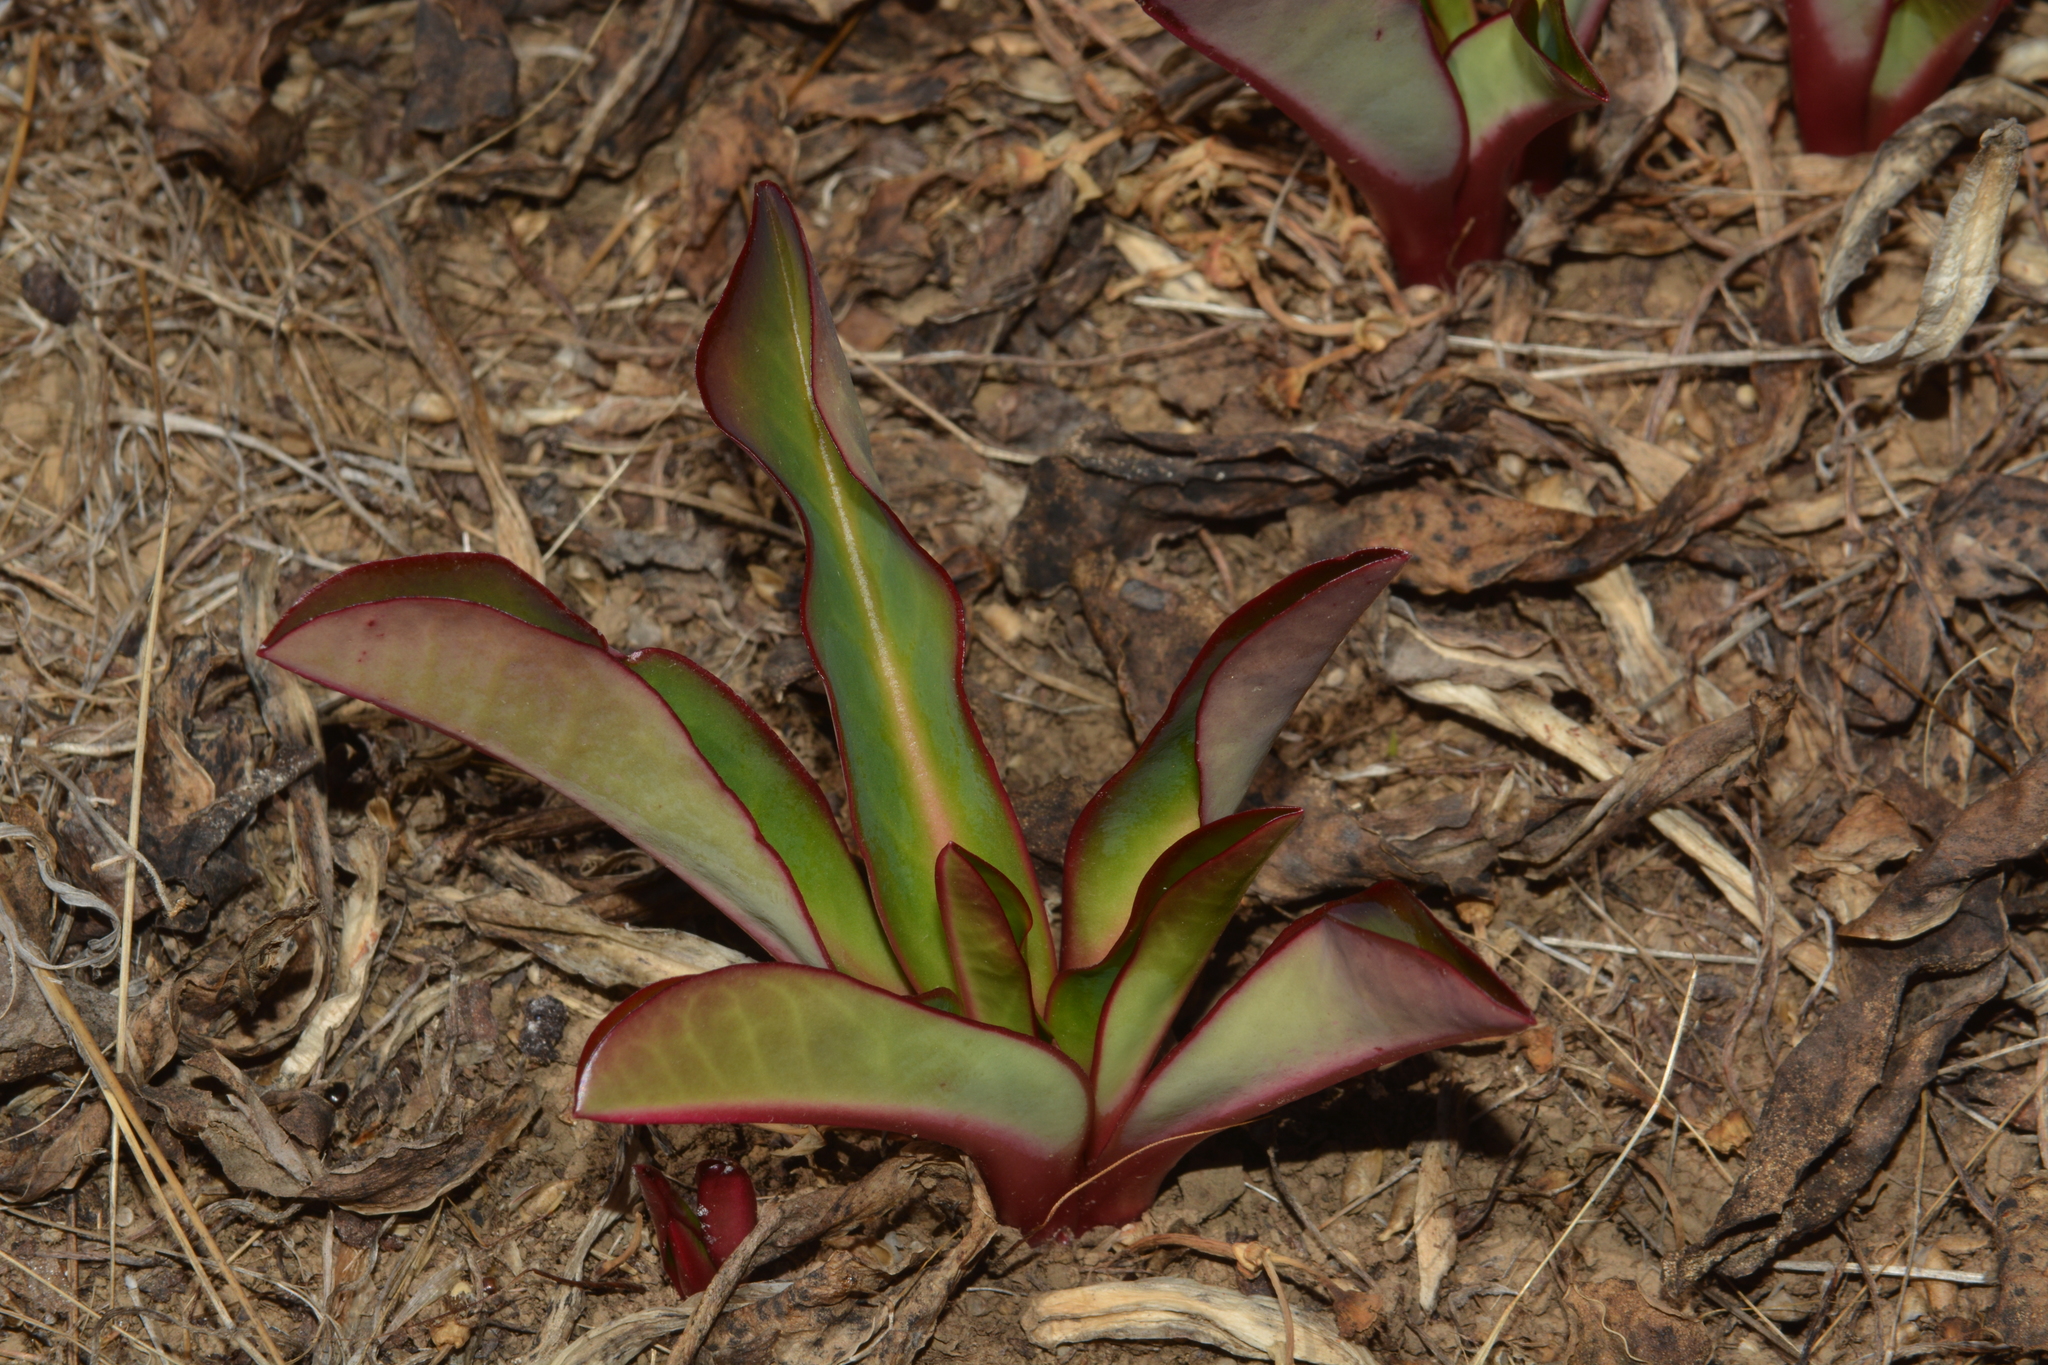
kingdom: Plantae
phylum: Tracheophyta
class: Magnoliopsida
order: Malpighiales
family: Euphorbiaceae
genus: Euphorbia
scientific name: Euphorbia khandallensis
